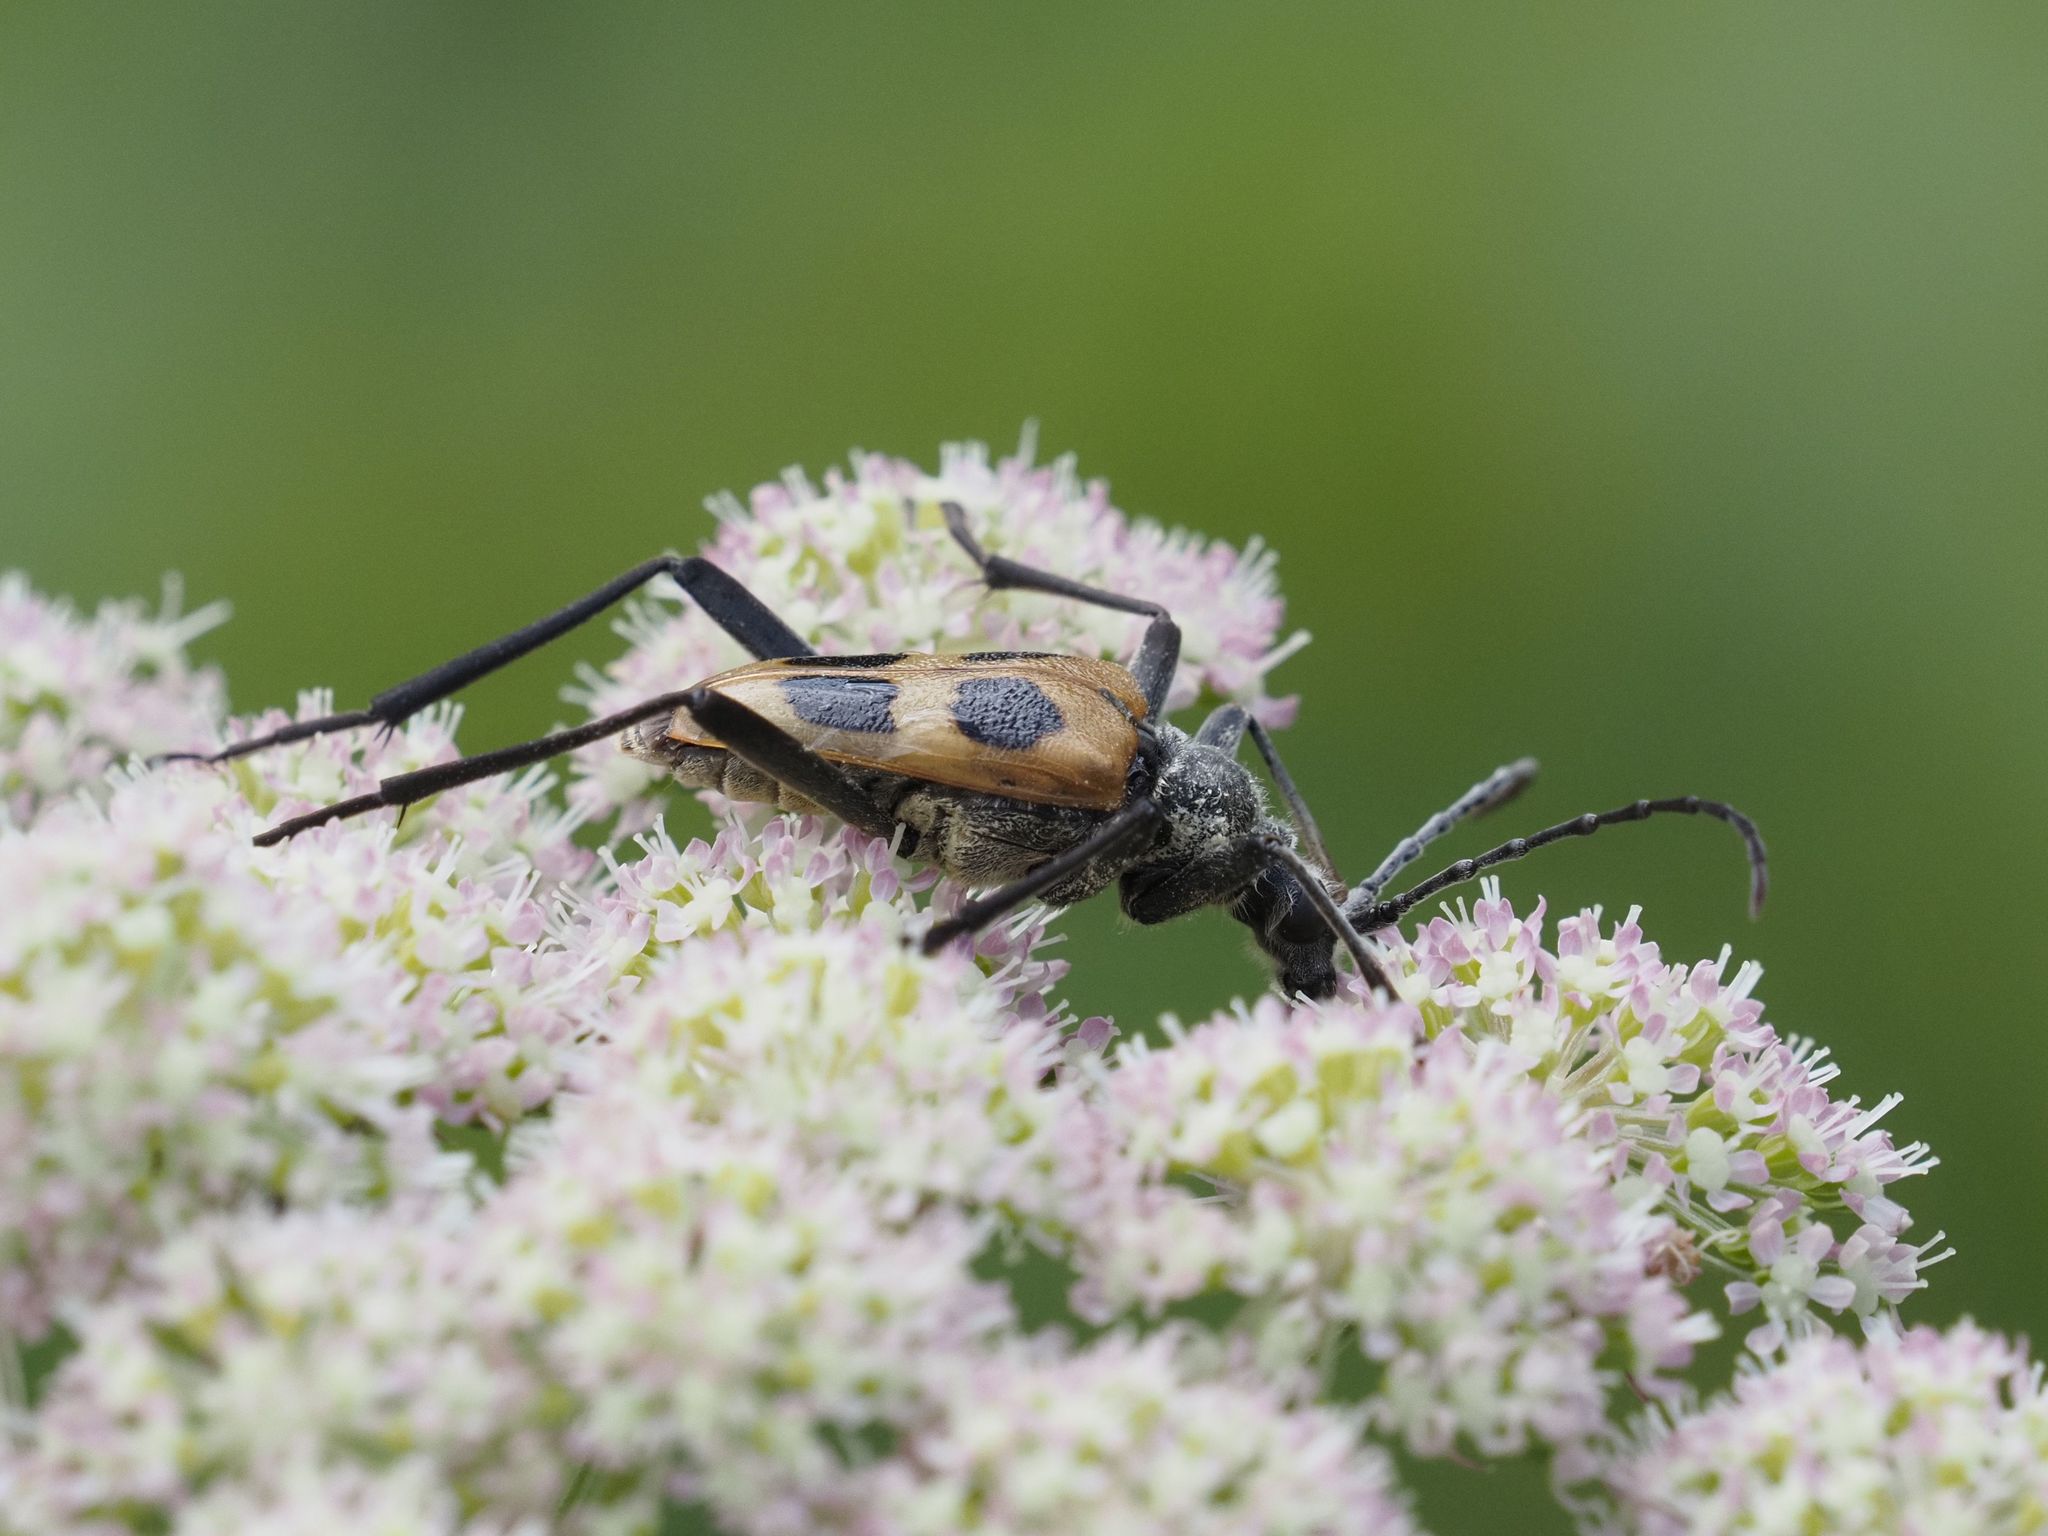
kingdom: Animalia
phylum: Arthropoda
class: Insecta
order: Coleoptera
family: Cerambycidae
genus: Pachyta
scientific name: Pachyta quadrimaculata
